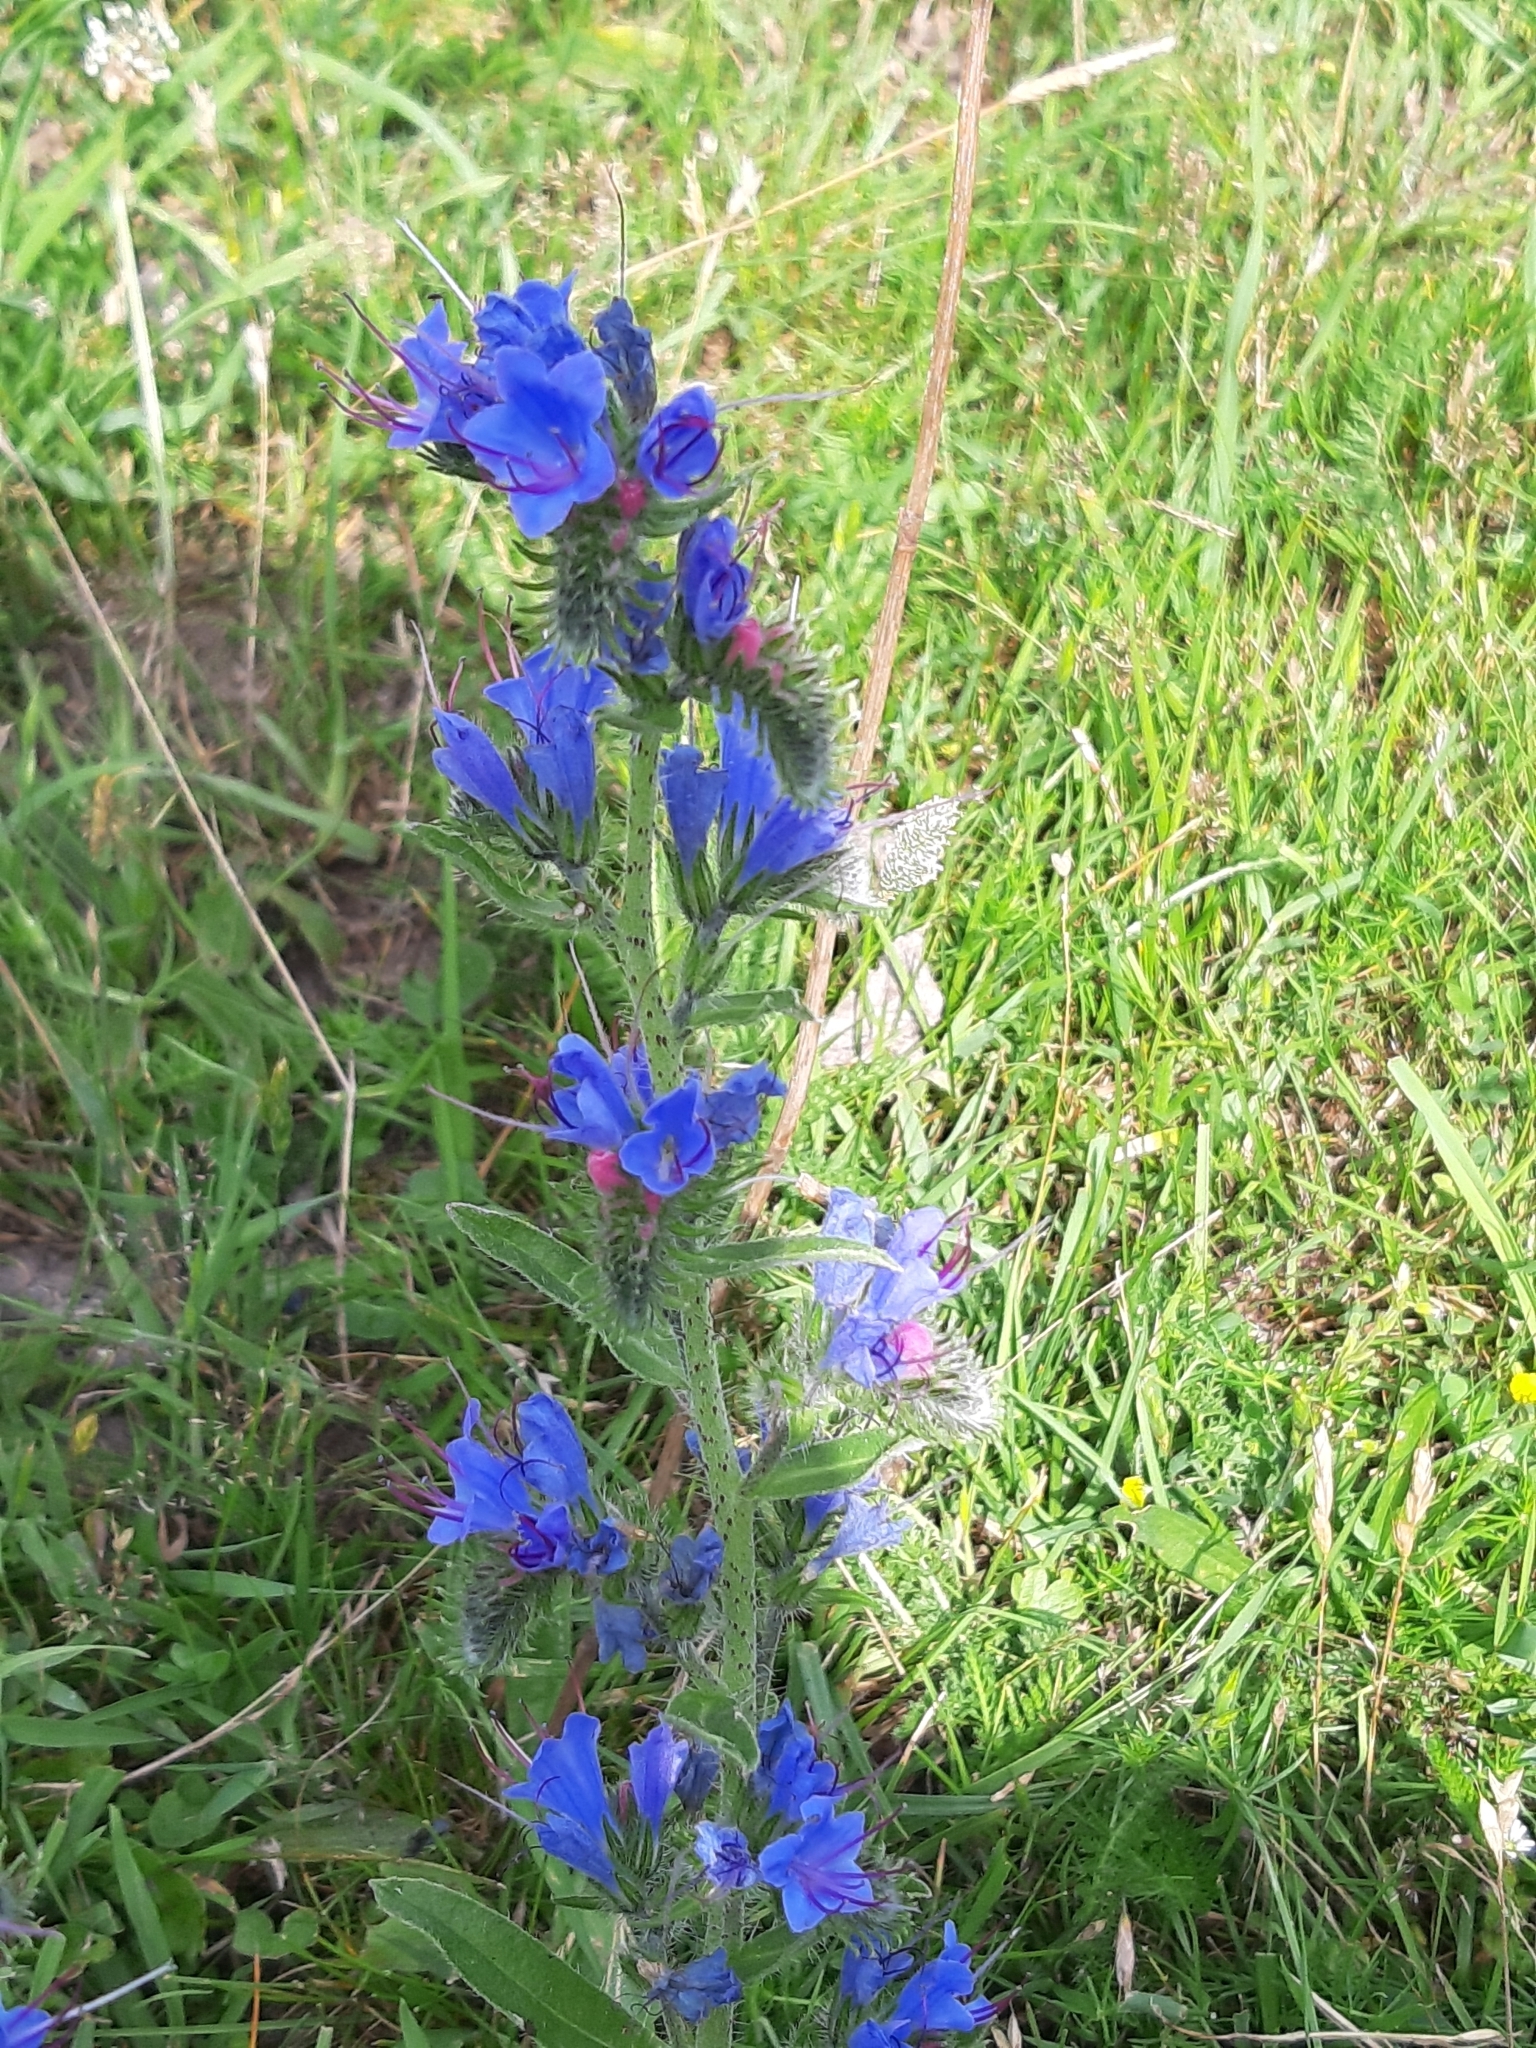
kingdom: Plantae
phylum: Tracheophyta
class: Magnoliopsida
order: Boraginales
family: Boraginaceae
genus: Echium
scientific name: Echium vulgare
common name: Common viper's bugloss
